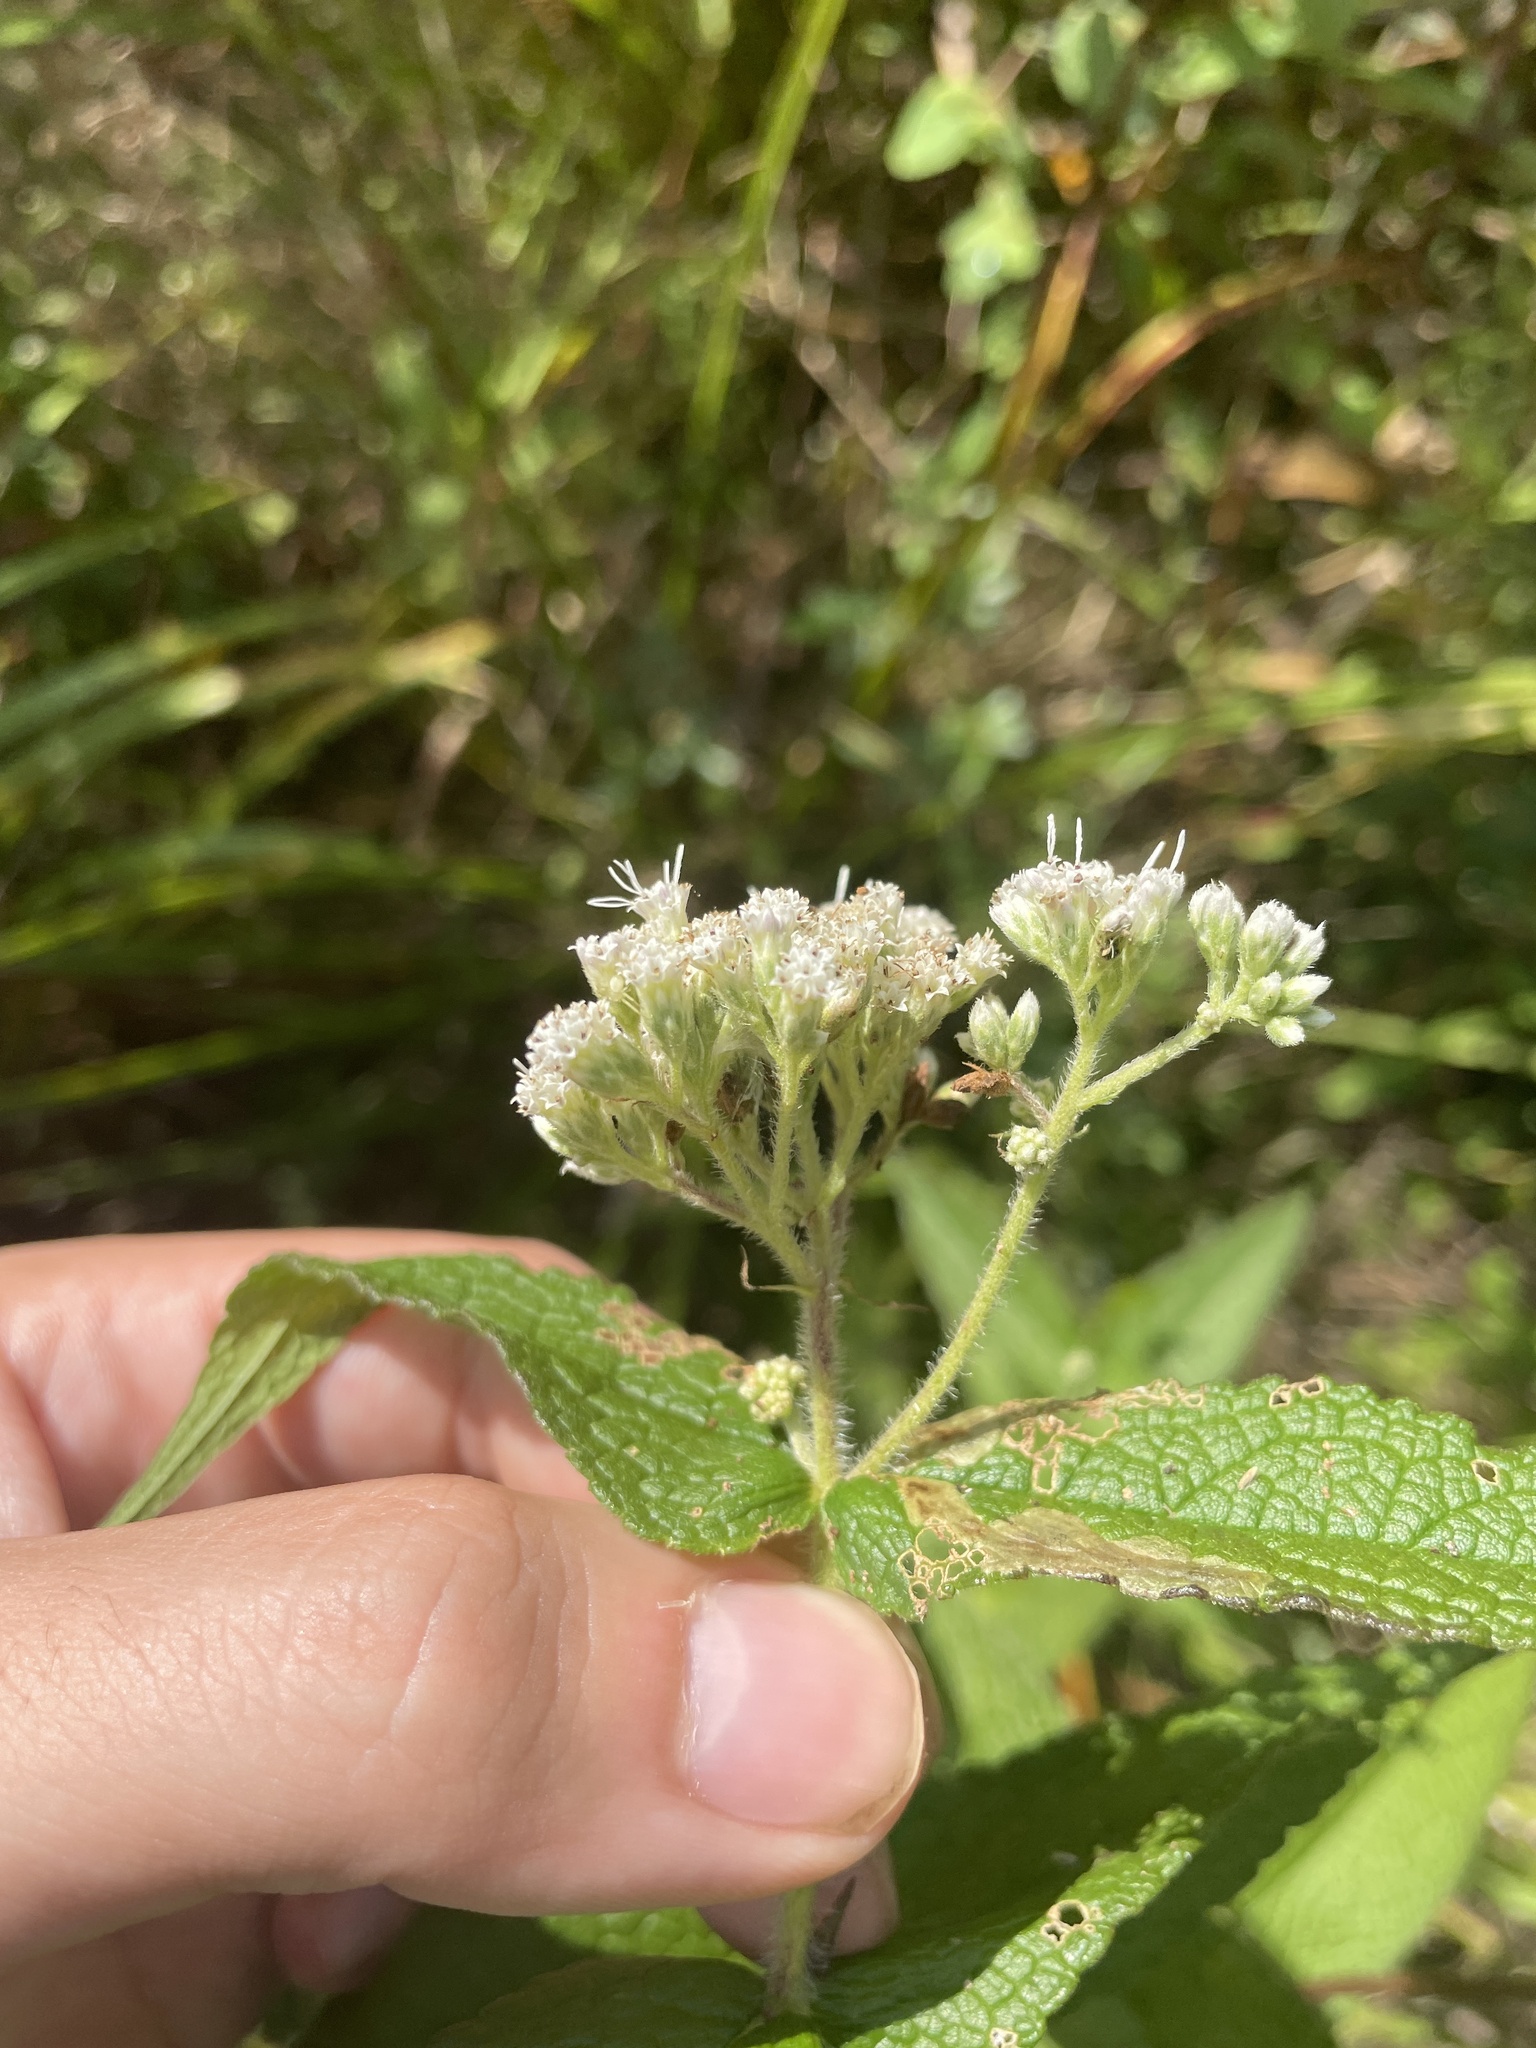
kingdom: Plantae
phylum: Tracheophyta
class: Magnoliopsida
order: Asterales
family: Asteraceae
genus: Eupatorium
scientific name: Eupatorium perfoliatum
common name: Boneset
